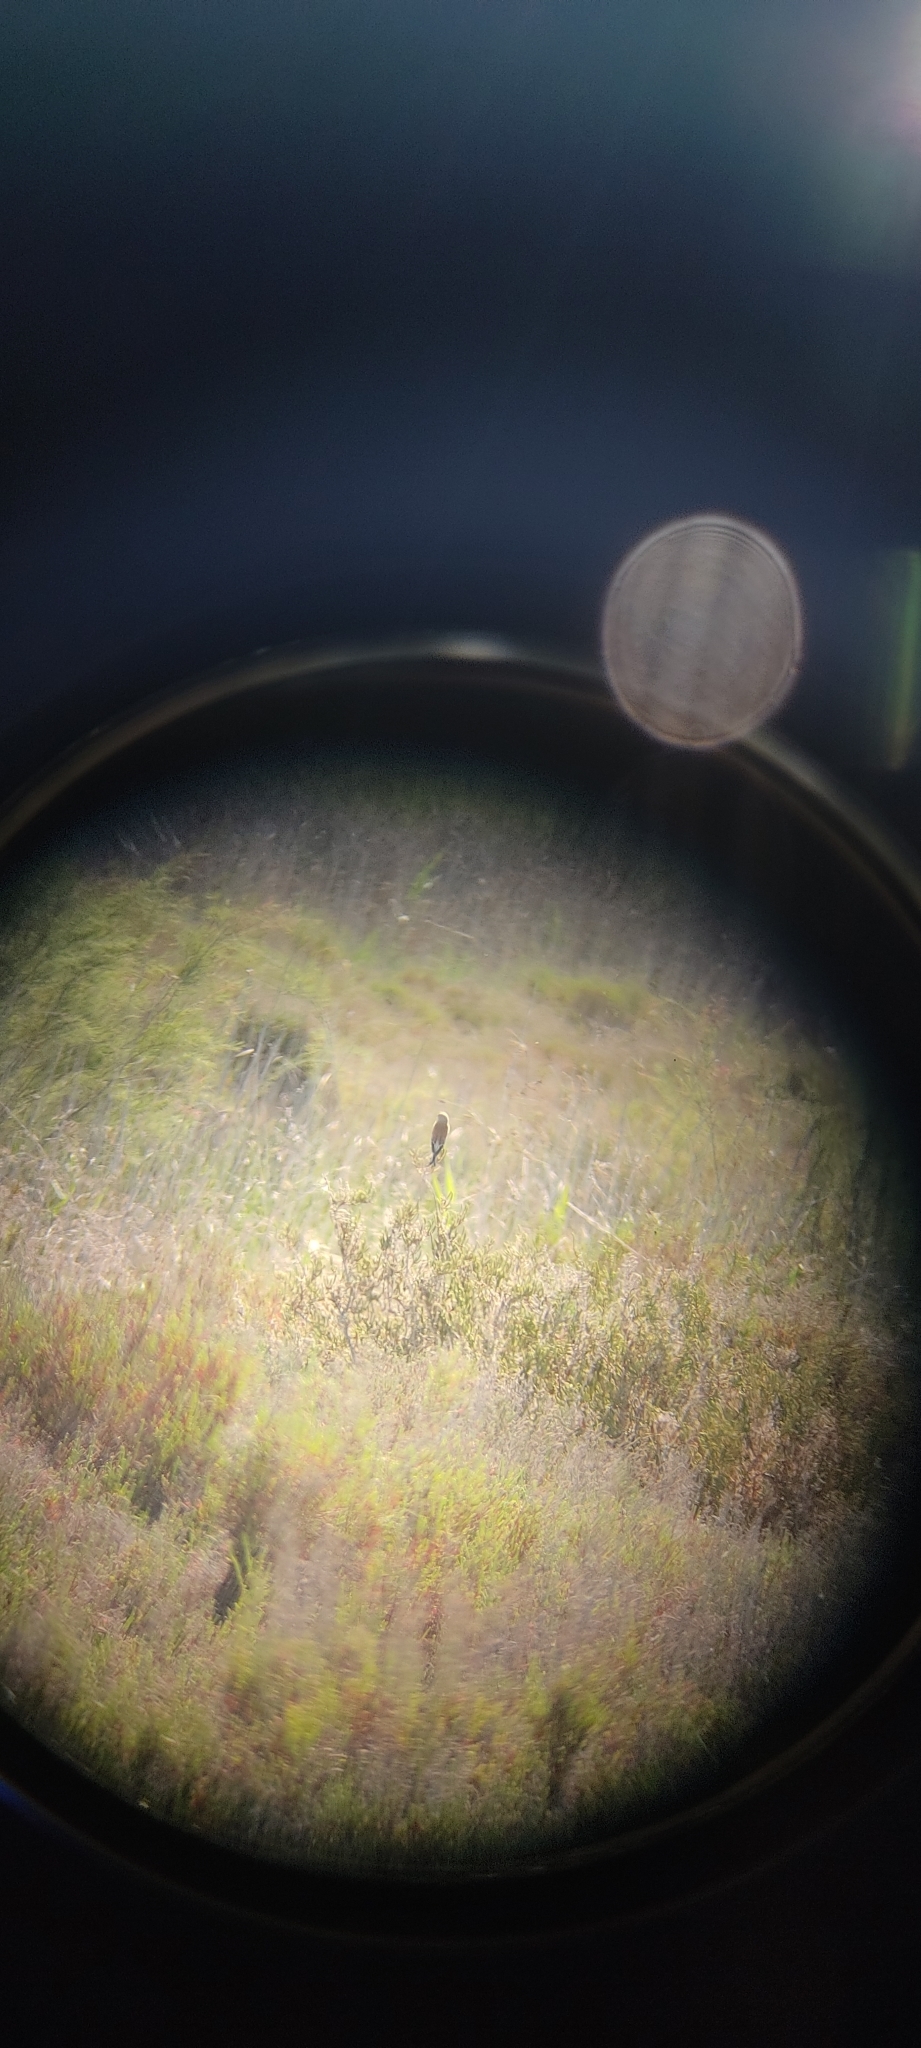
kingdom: Animalia
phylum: Chordata
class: Aves
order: Passeriformes
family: Fringillidae
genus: Linaria
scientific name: Linaria cannabina
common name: Common linnet
